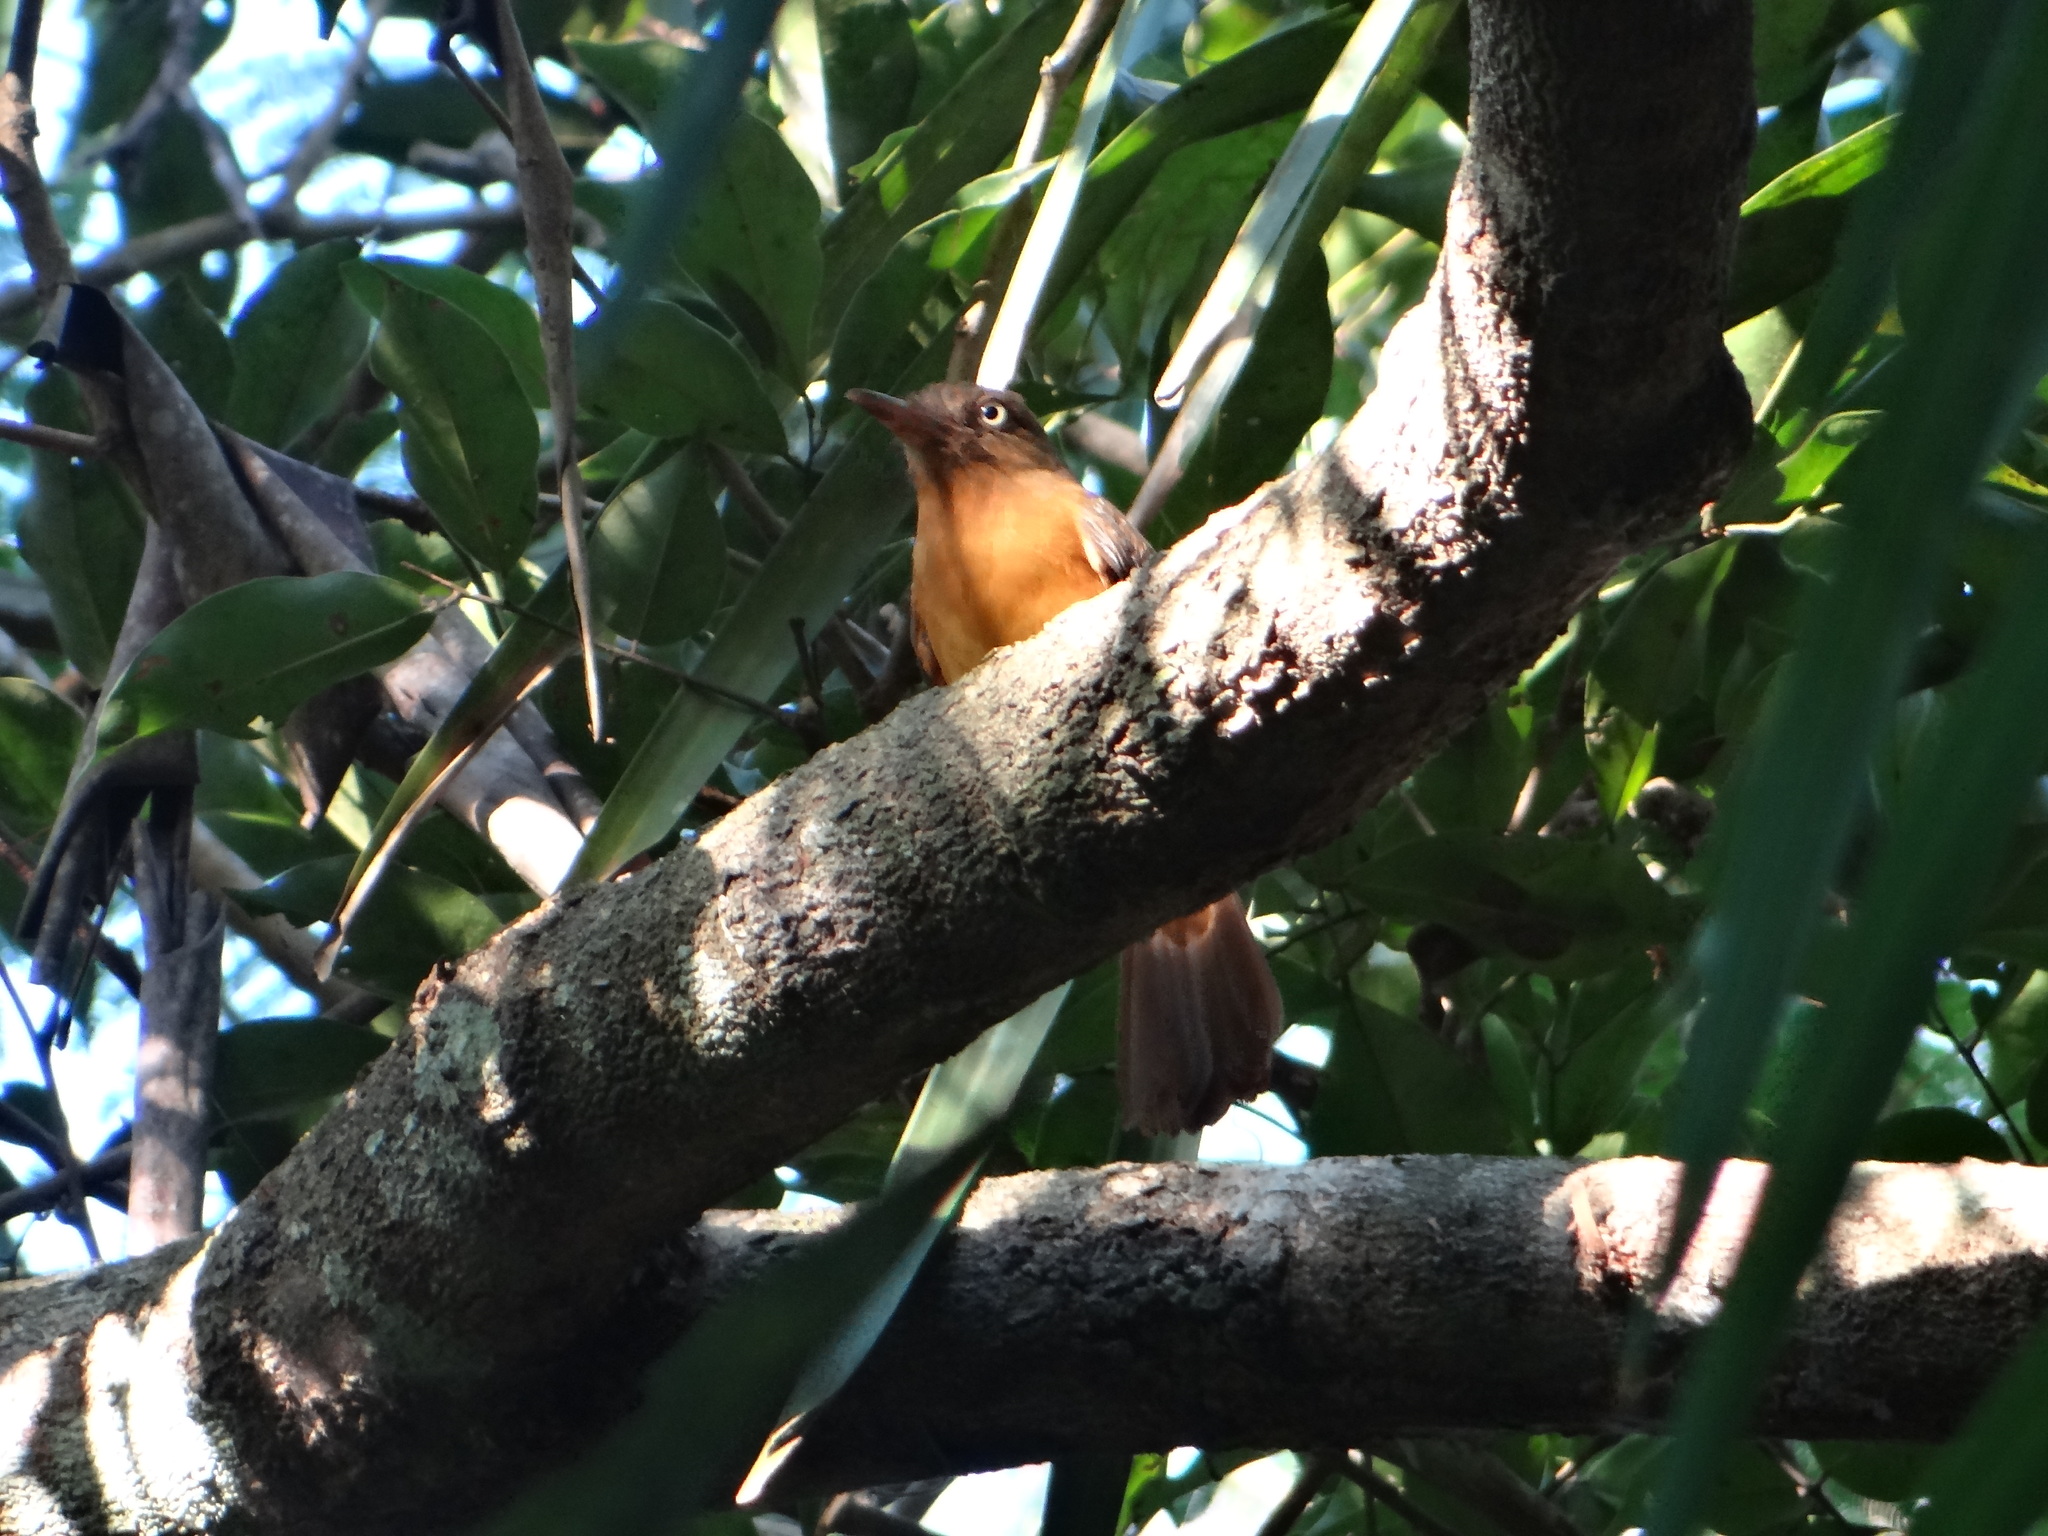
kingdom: Animalia
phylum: Chordata
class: Aves
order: Passeriformes
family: Tyrannidae
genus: Attila
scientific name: Attila bolivianus
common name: White-eyed attila
